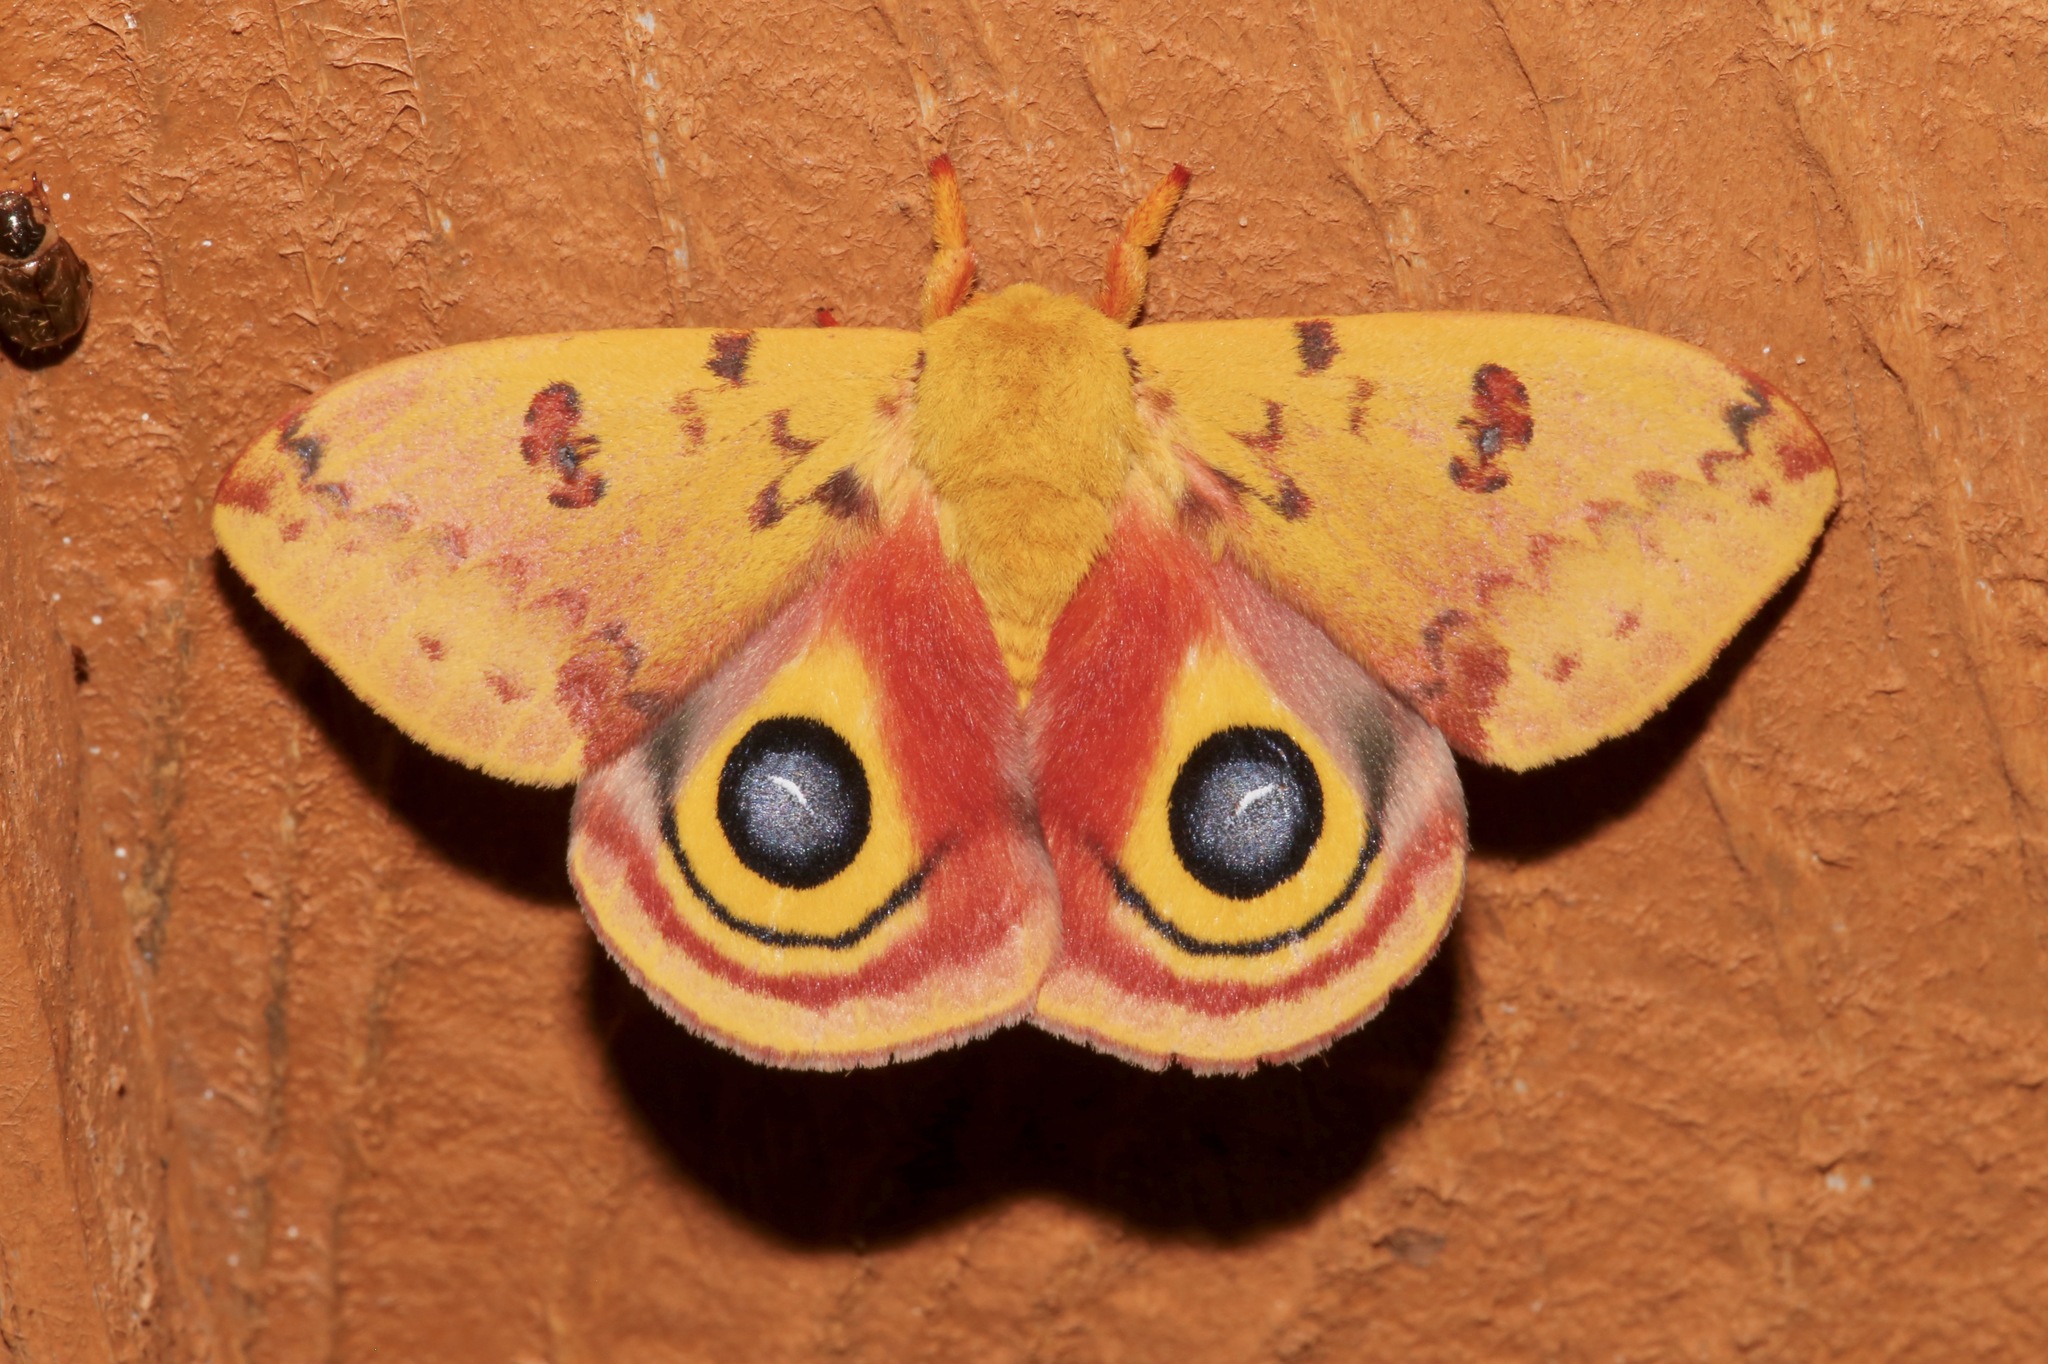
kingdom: Animalia
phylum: Arthropoda
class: Insecta
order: Lepidoptera
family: Saturniidae
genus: Automeris
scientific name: Automeris io
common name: Io moth
